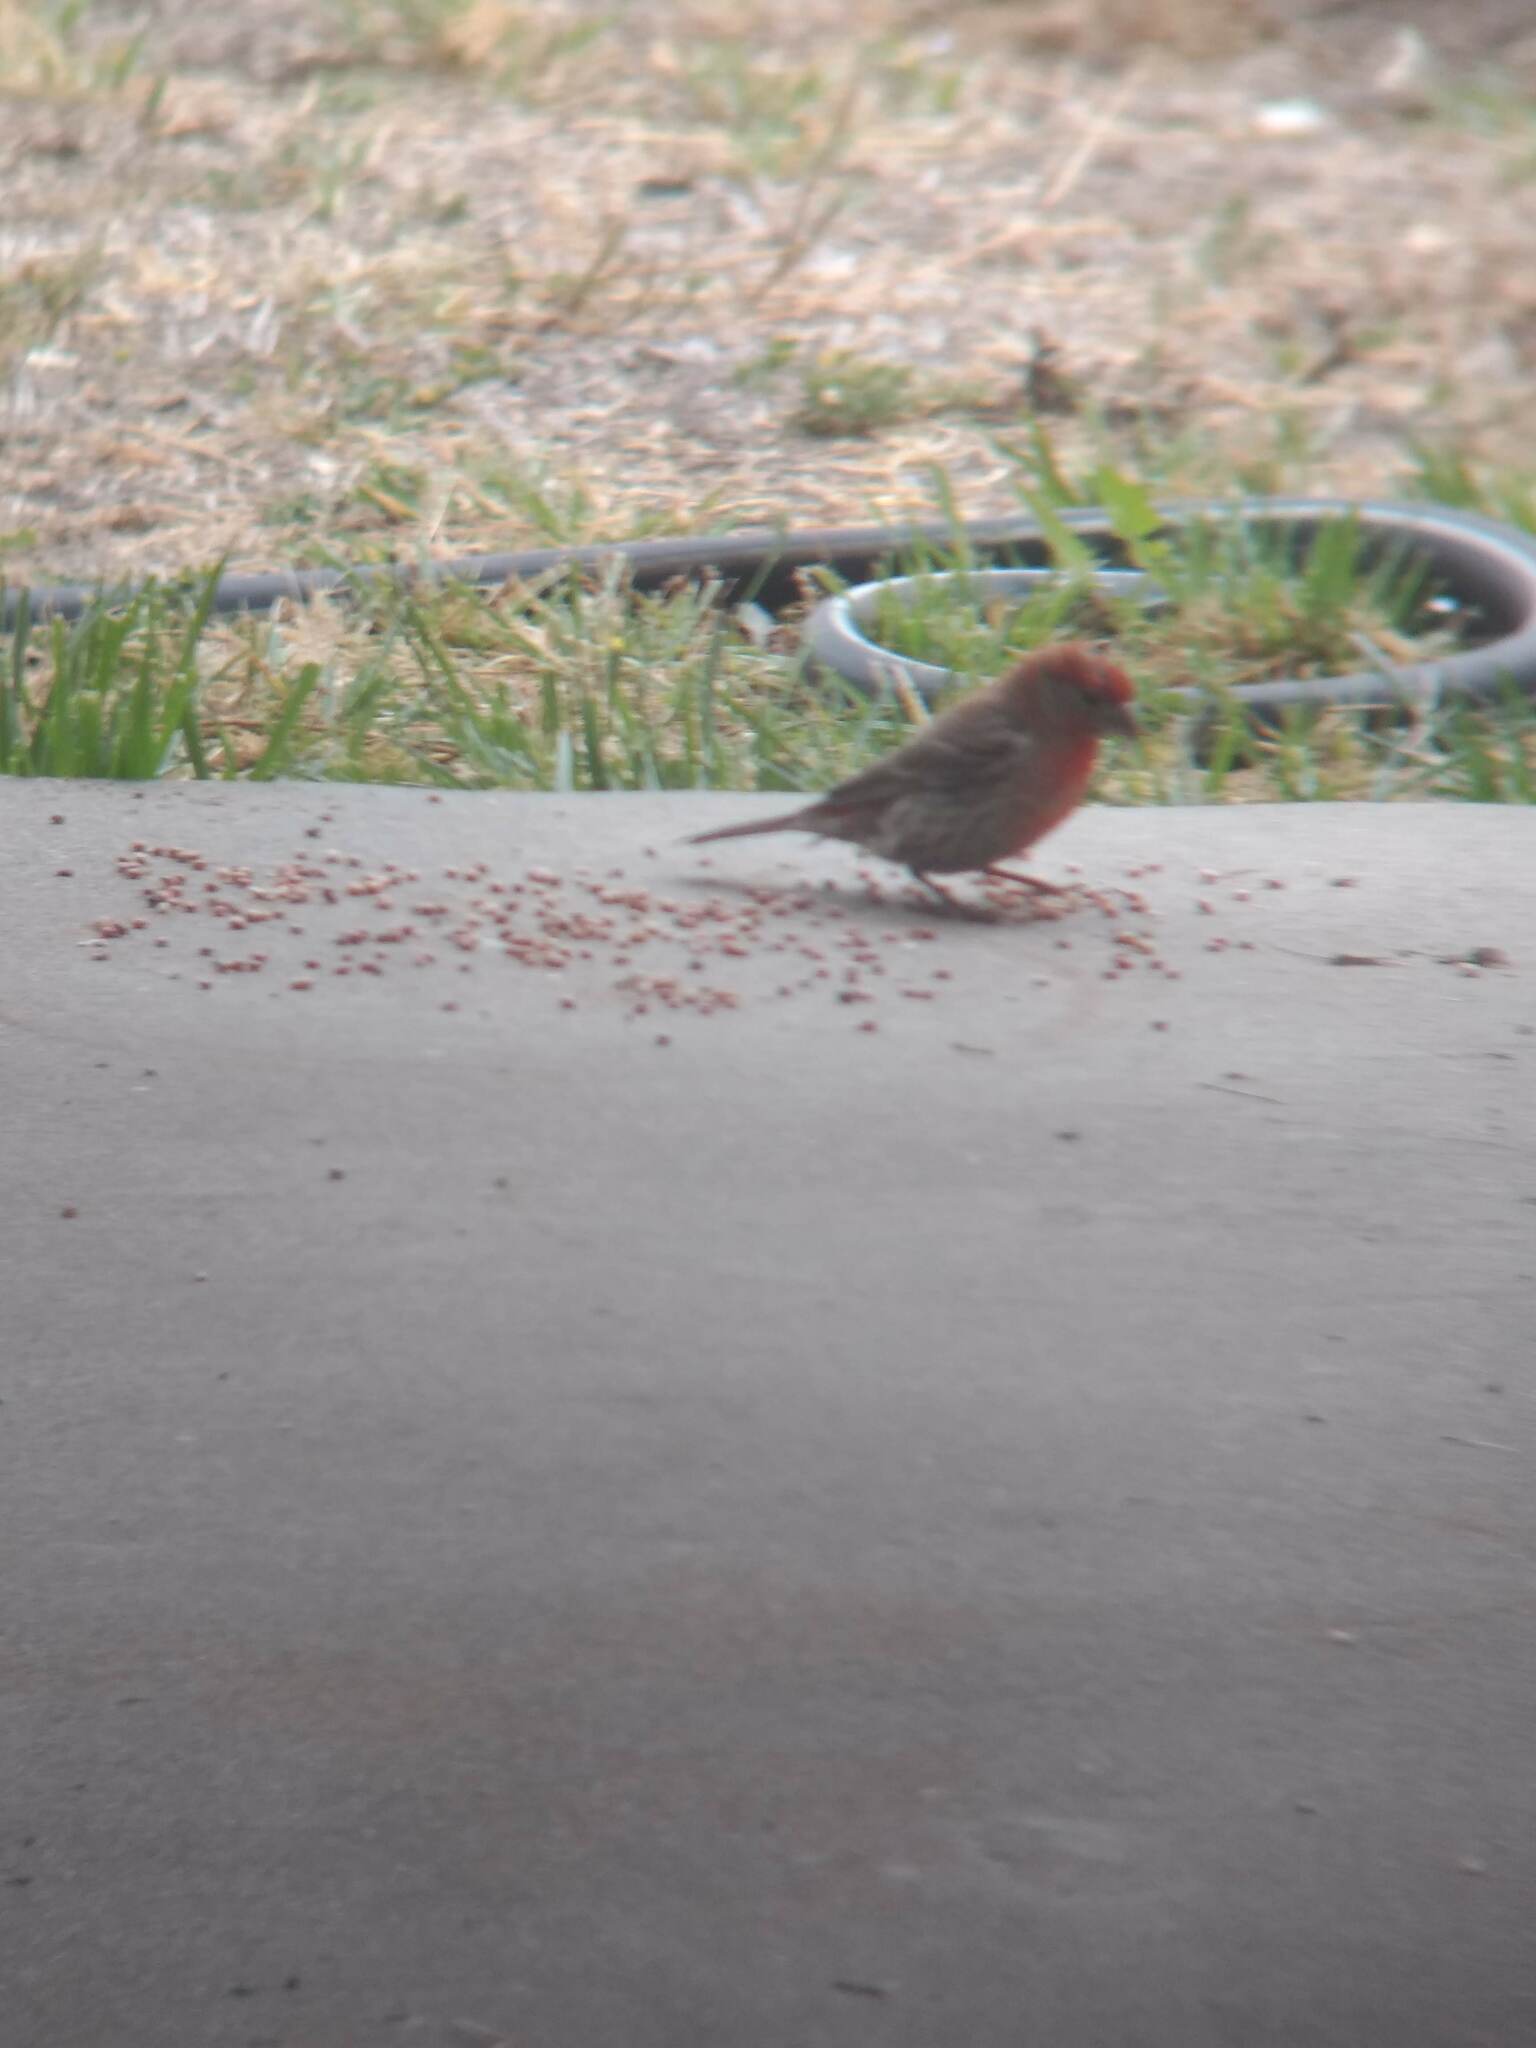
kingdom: Animalia
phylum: Chordata
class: Aves
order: Passeriformes
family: Fringillidae
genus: Haemorhous
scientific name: Haemorhous mexicanus
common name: House finch
